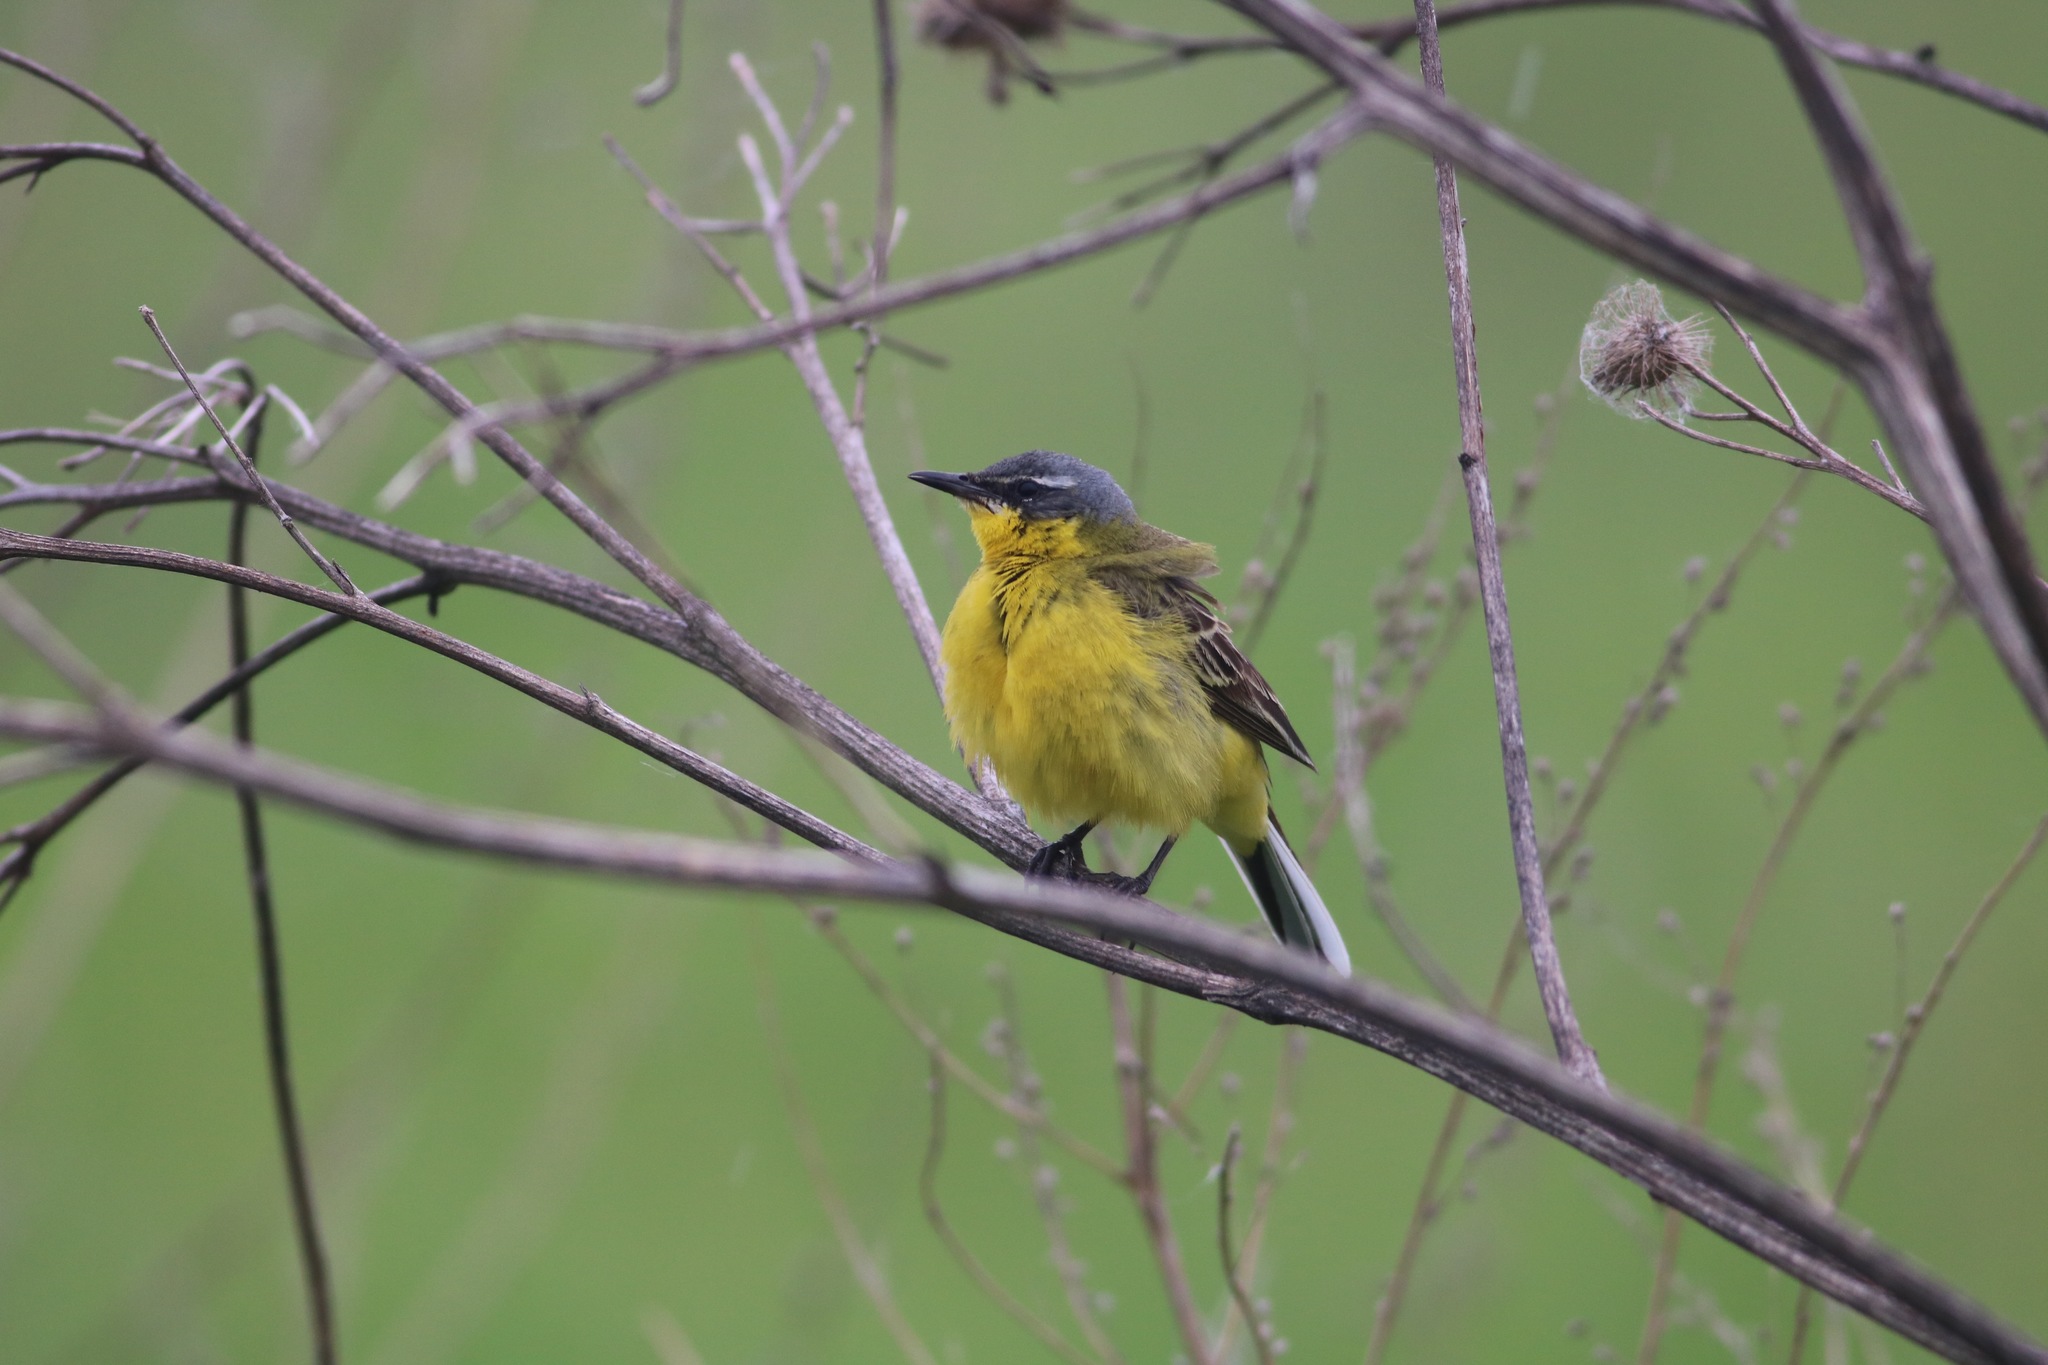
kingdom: Animalia
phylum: Chordata
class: Aves
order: Passeriformes
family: Motacillidae
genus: Motacilla
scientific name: Motacilla flava
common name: Western yellow wagtail
